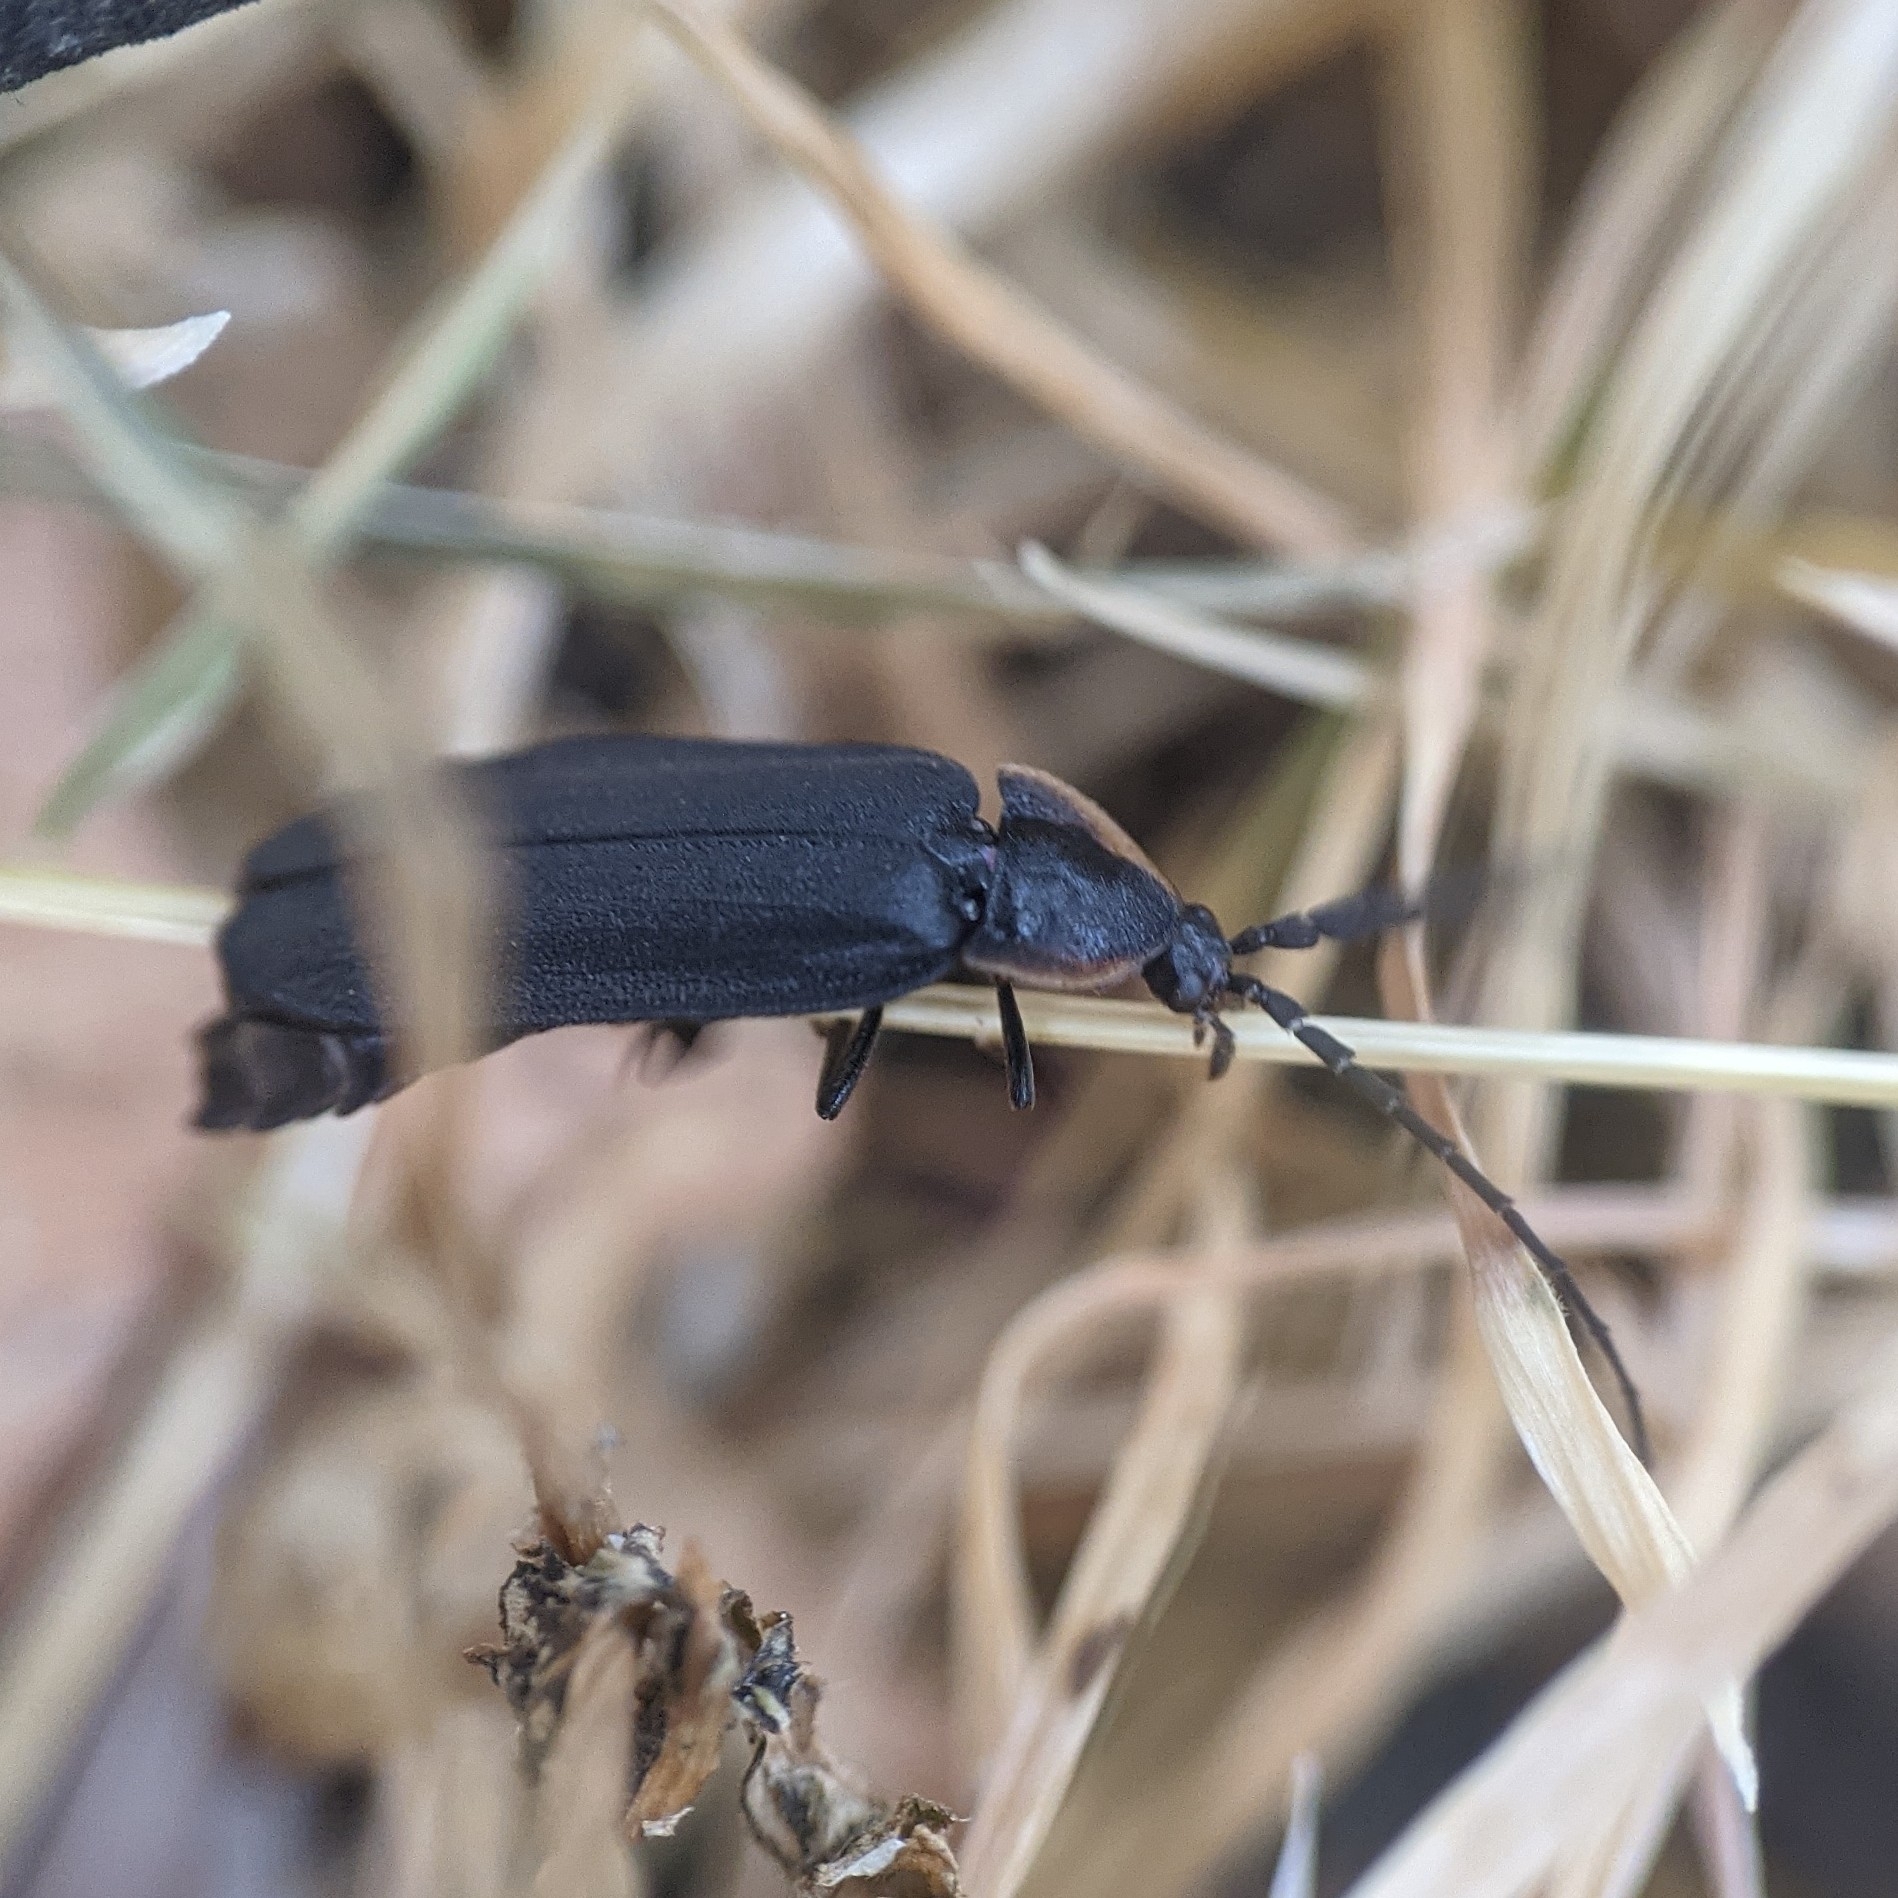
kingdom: Animalia
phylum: Arthropoda
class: Insecta
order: Coleoptera
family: Lampyridae
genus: Lucidota
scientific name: Lucidota atra
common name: Black firefly
